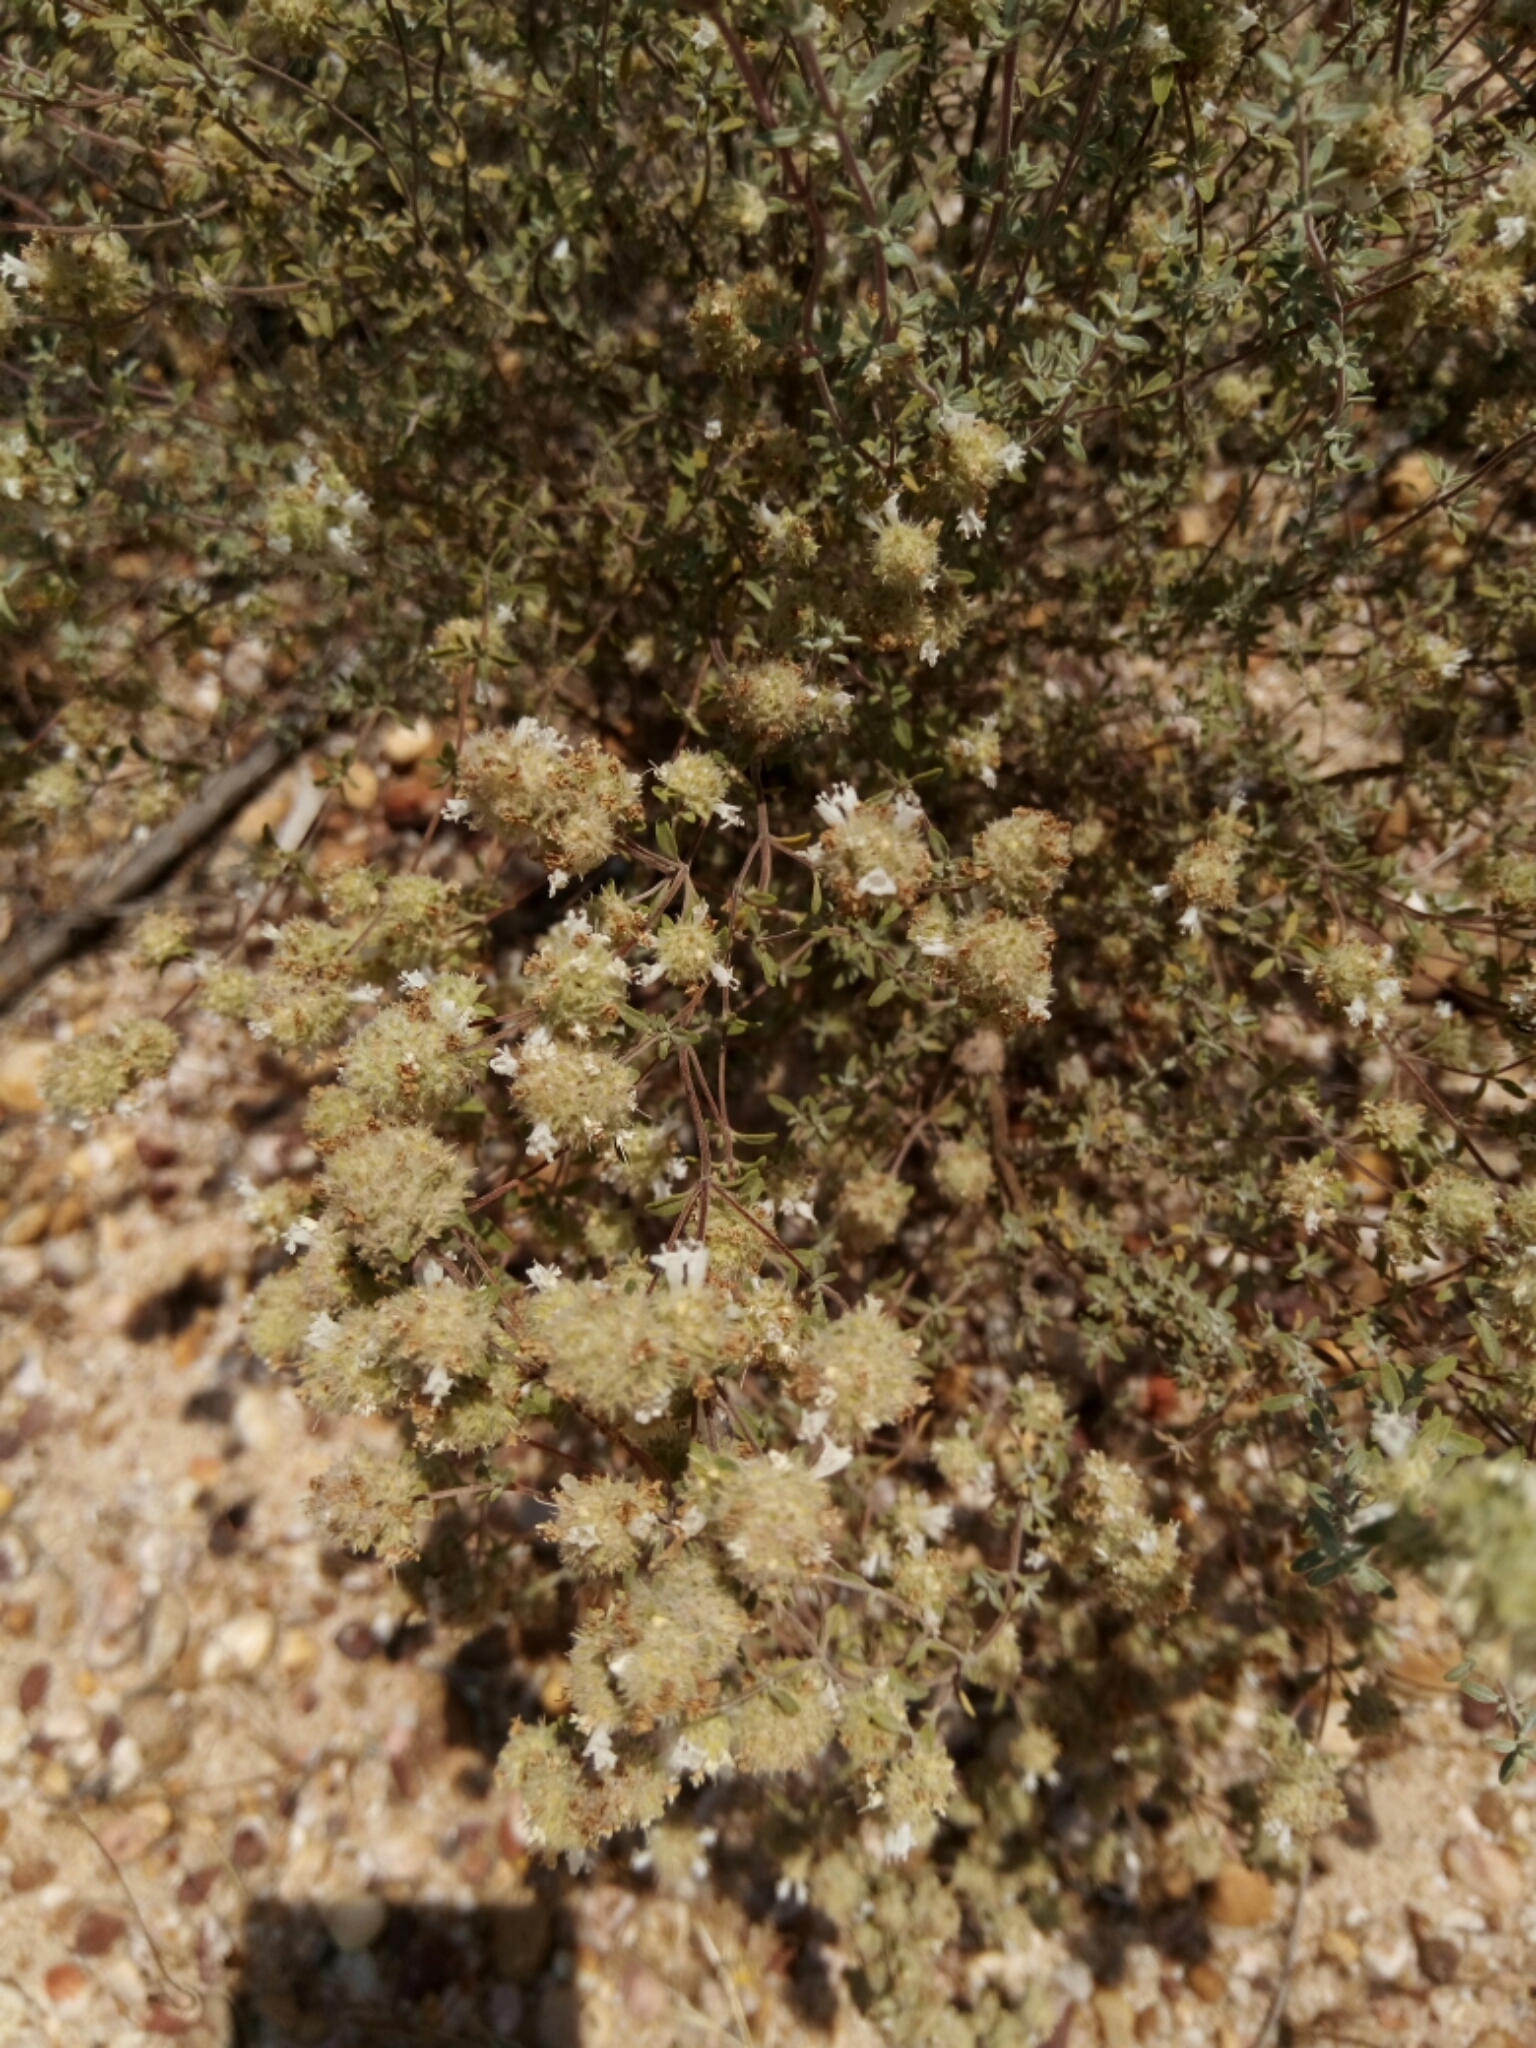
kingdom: Plantae
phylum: Tracheophyta
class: Magnoliopsida
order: Lamiales
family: Lamiaceae
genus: Thymus
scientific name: Thymus albicans
